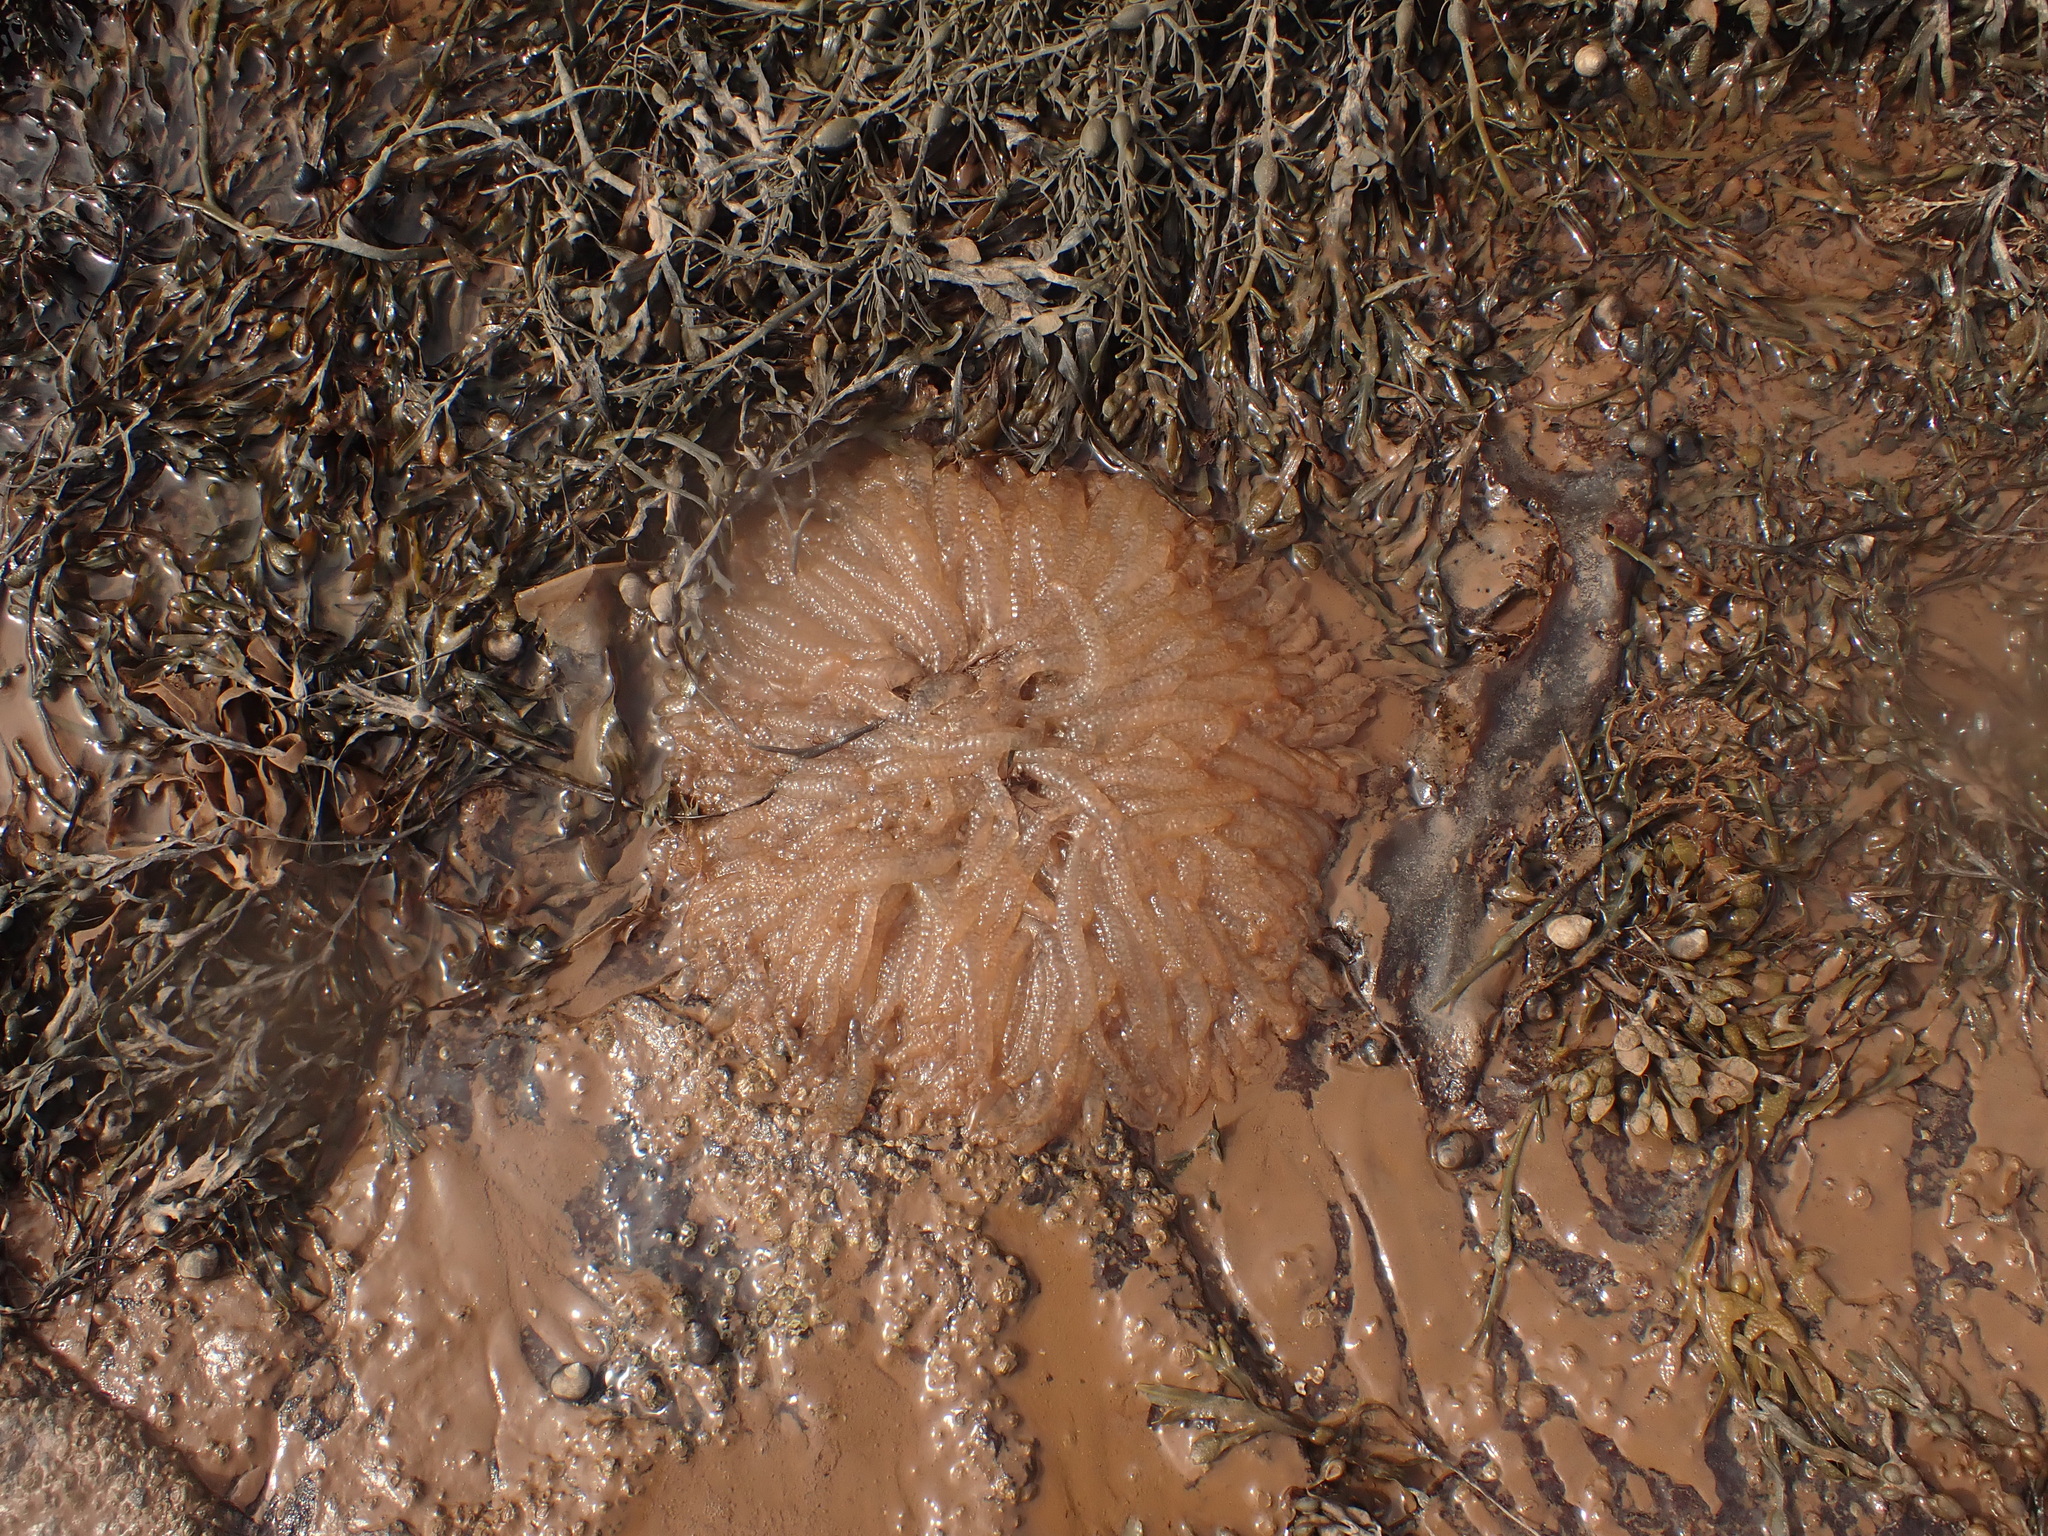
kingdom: Animalia
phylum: Mollusca
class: Cephalopoda
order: Myopsida
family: Loliginidae
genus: Doryteuthis
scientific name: Doryteuthis pealeii
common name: Long-finned inshore squid
